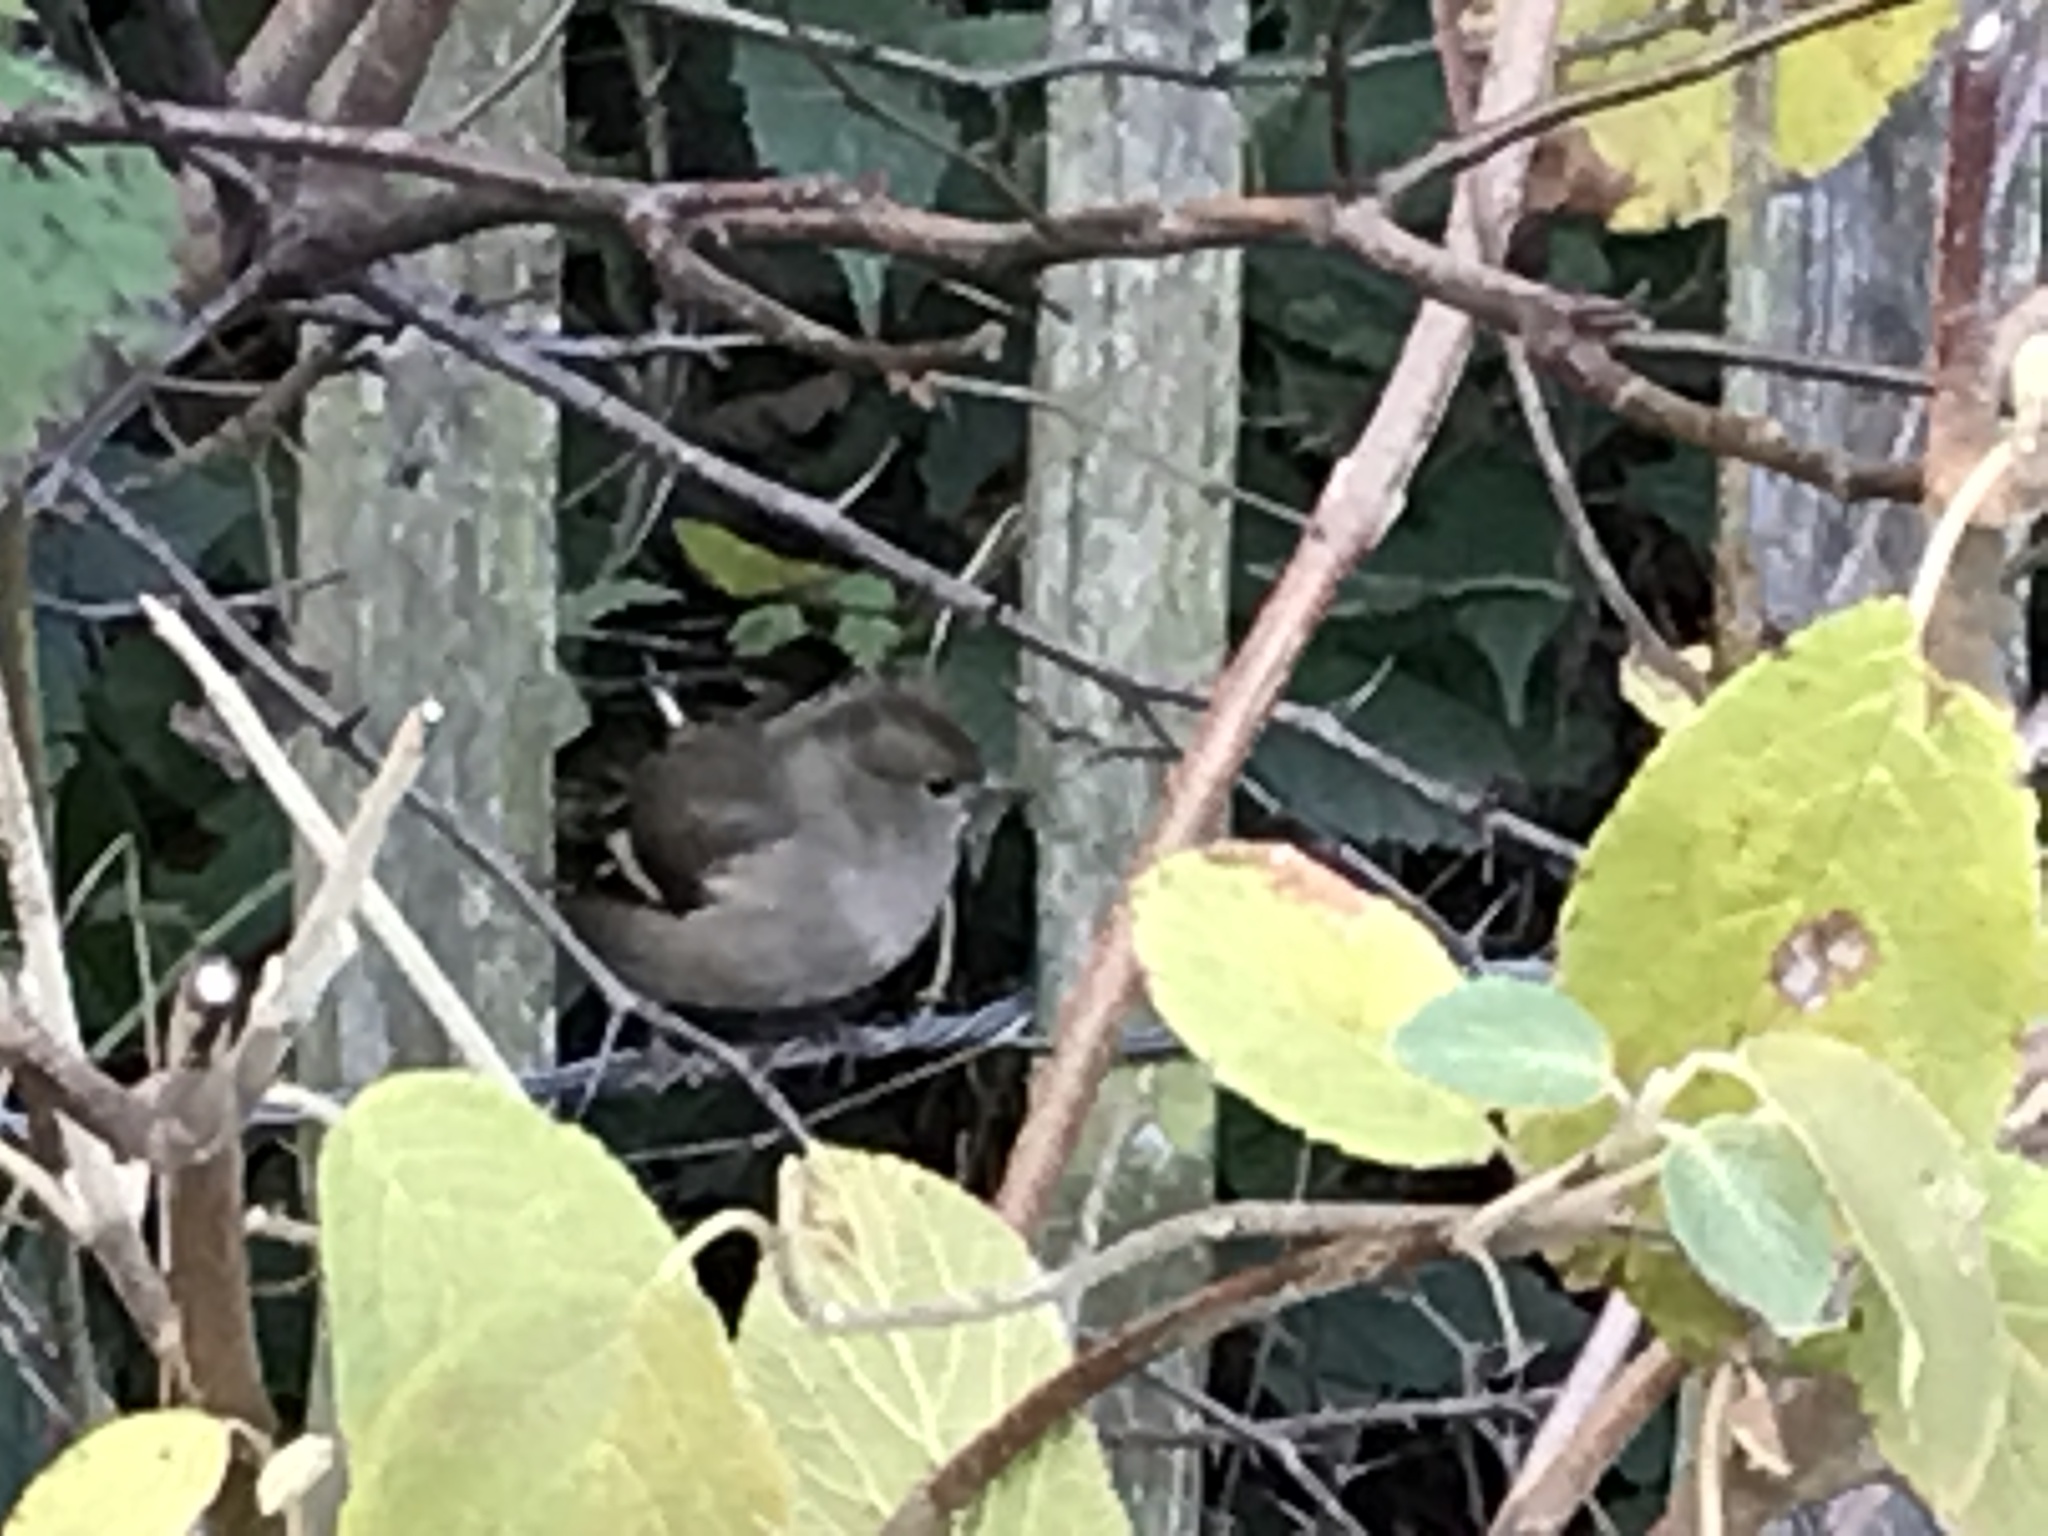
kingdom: Animalia
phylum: Chordata
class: Aves
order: Passeriformes
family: Fringillidae
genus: Fringilla
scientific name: Fringilla coelebs
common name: Common chaffinch
